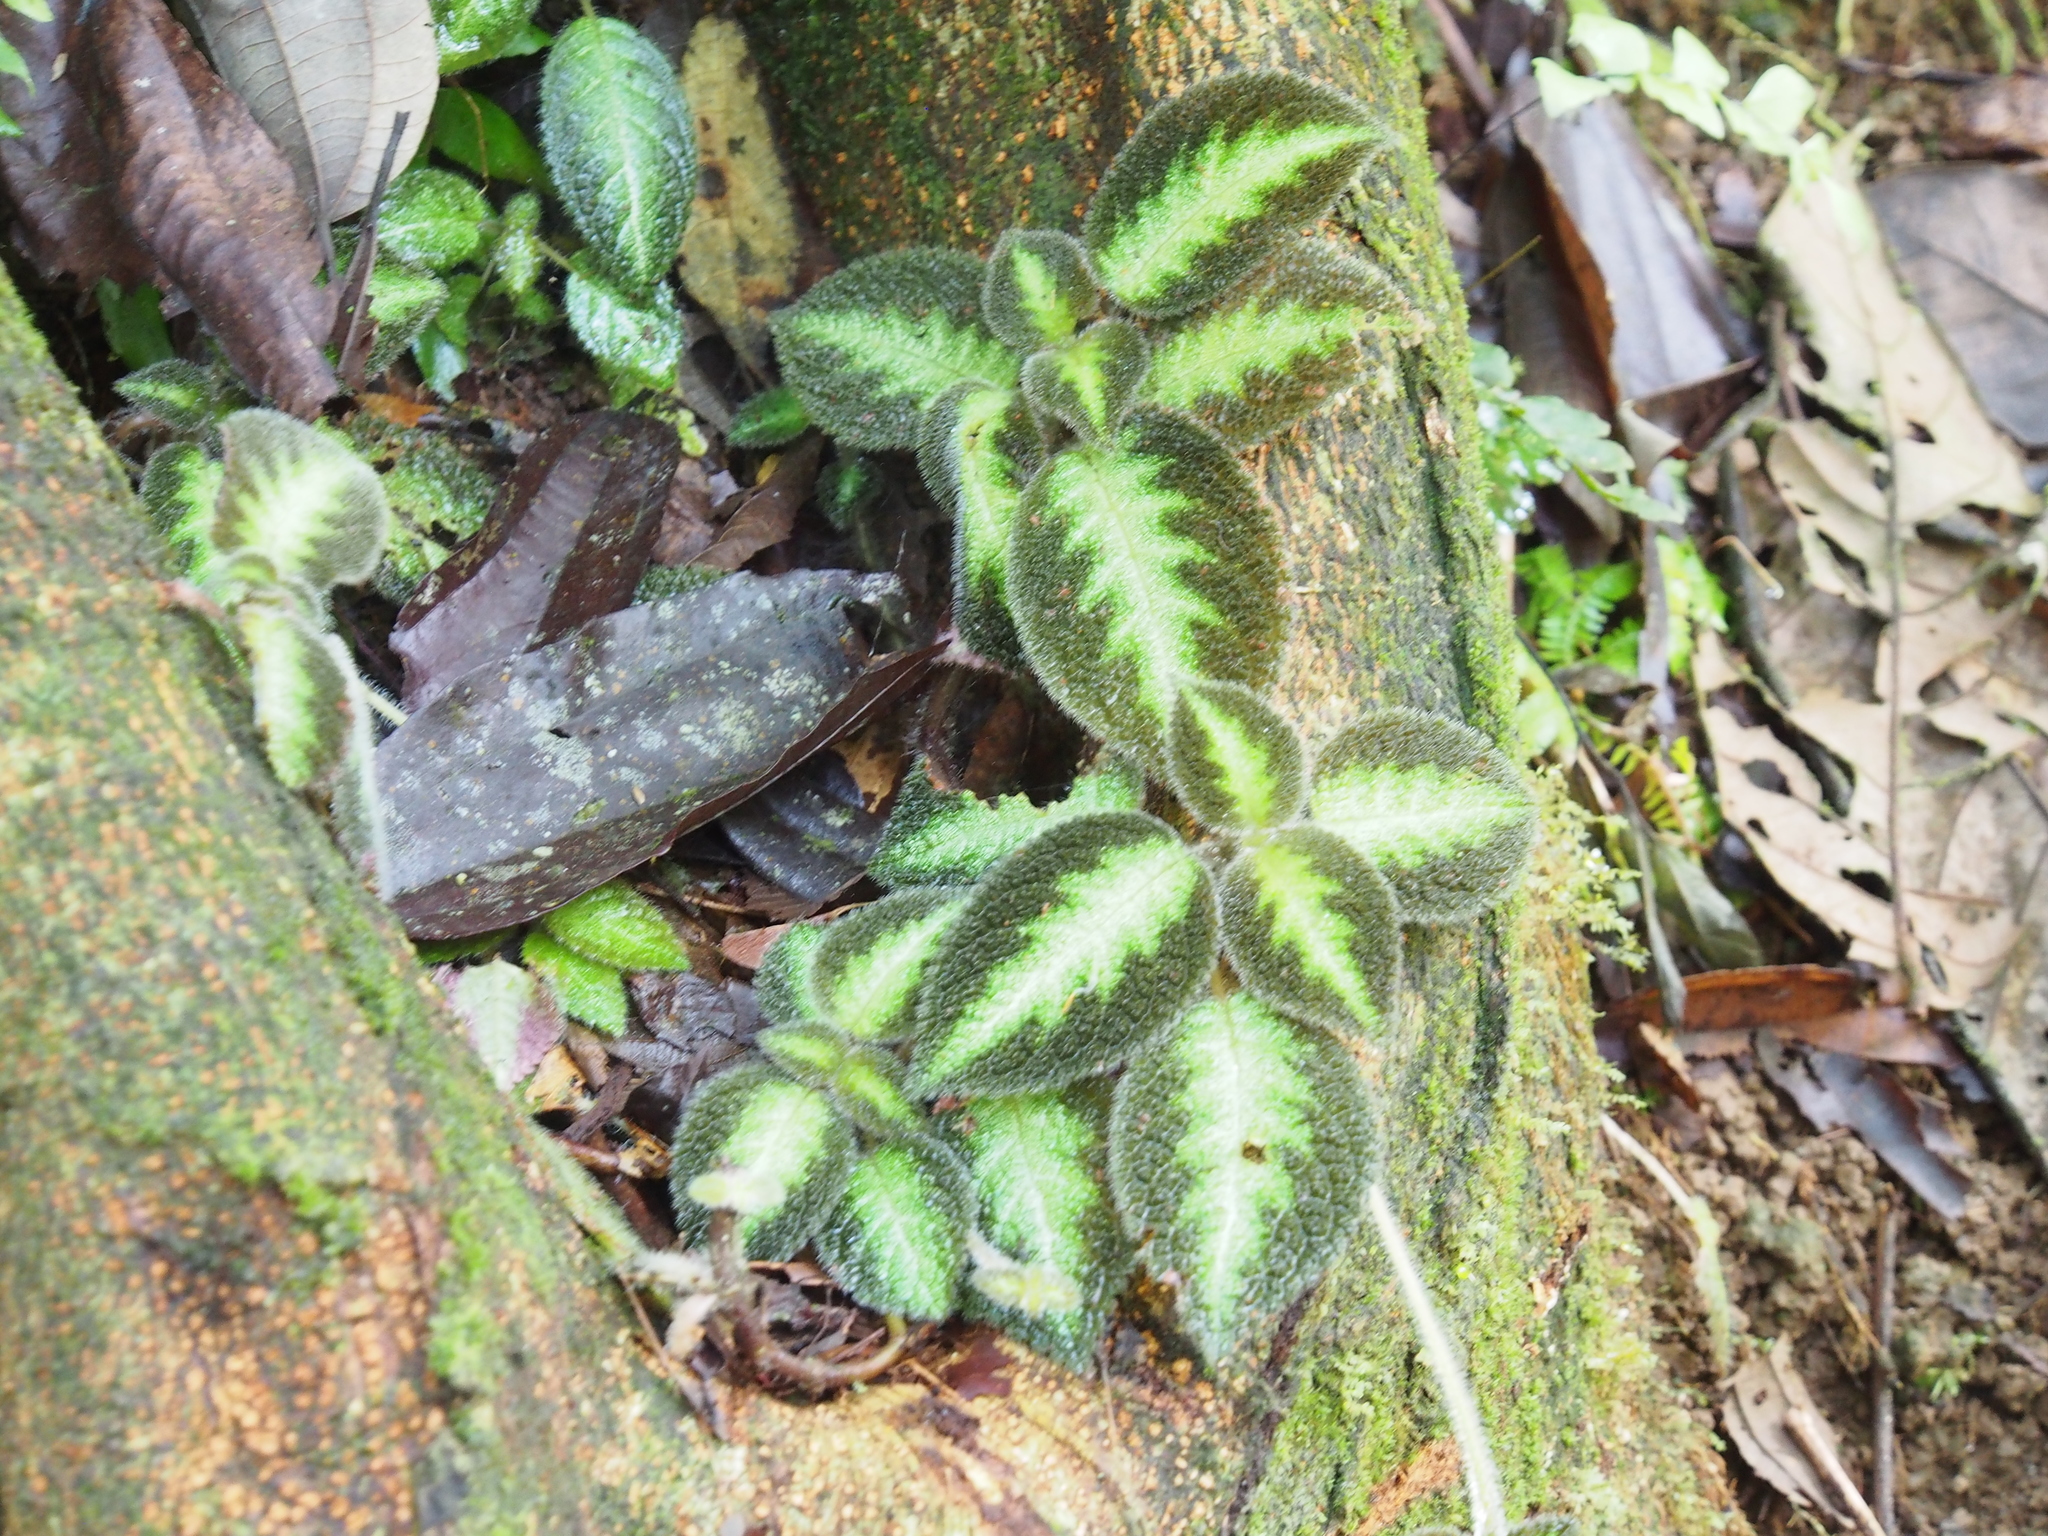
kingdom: Plantae
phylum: Tracheophyta
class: Magnoliopsida
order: Lamiales
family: Gesneriaceae
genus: Episcia
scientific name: Episcia lilacina
